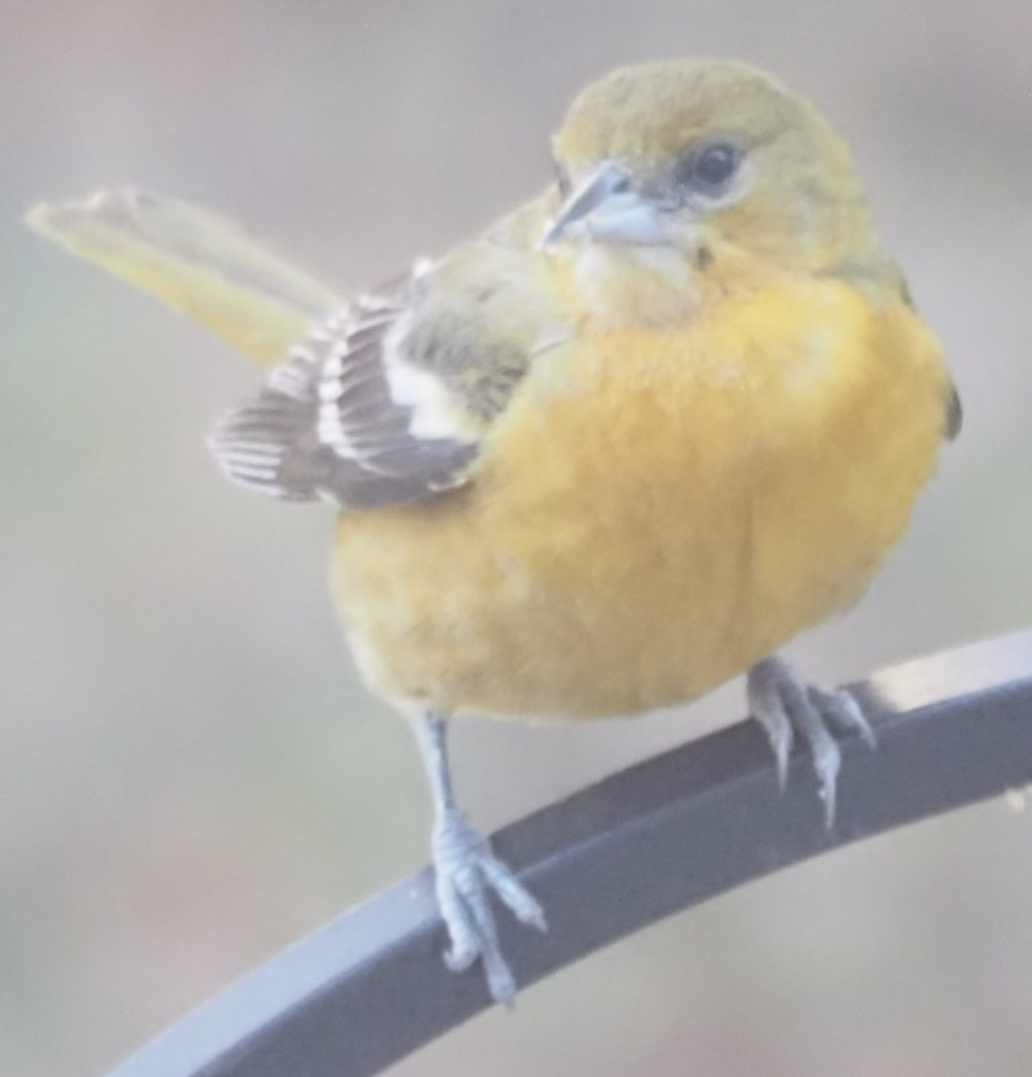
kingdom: Animalia
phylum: Chordata
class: Aves
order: Passeriformes
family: Icteridae
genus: Icterus
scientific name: Icterus galbula
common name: Baltimore oriole
